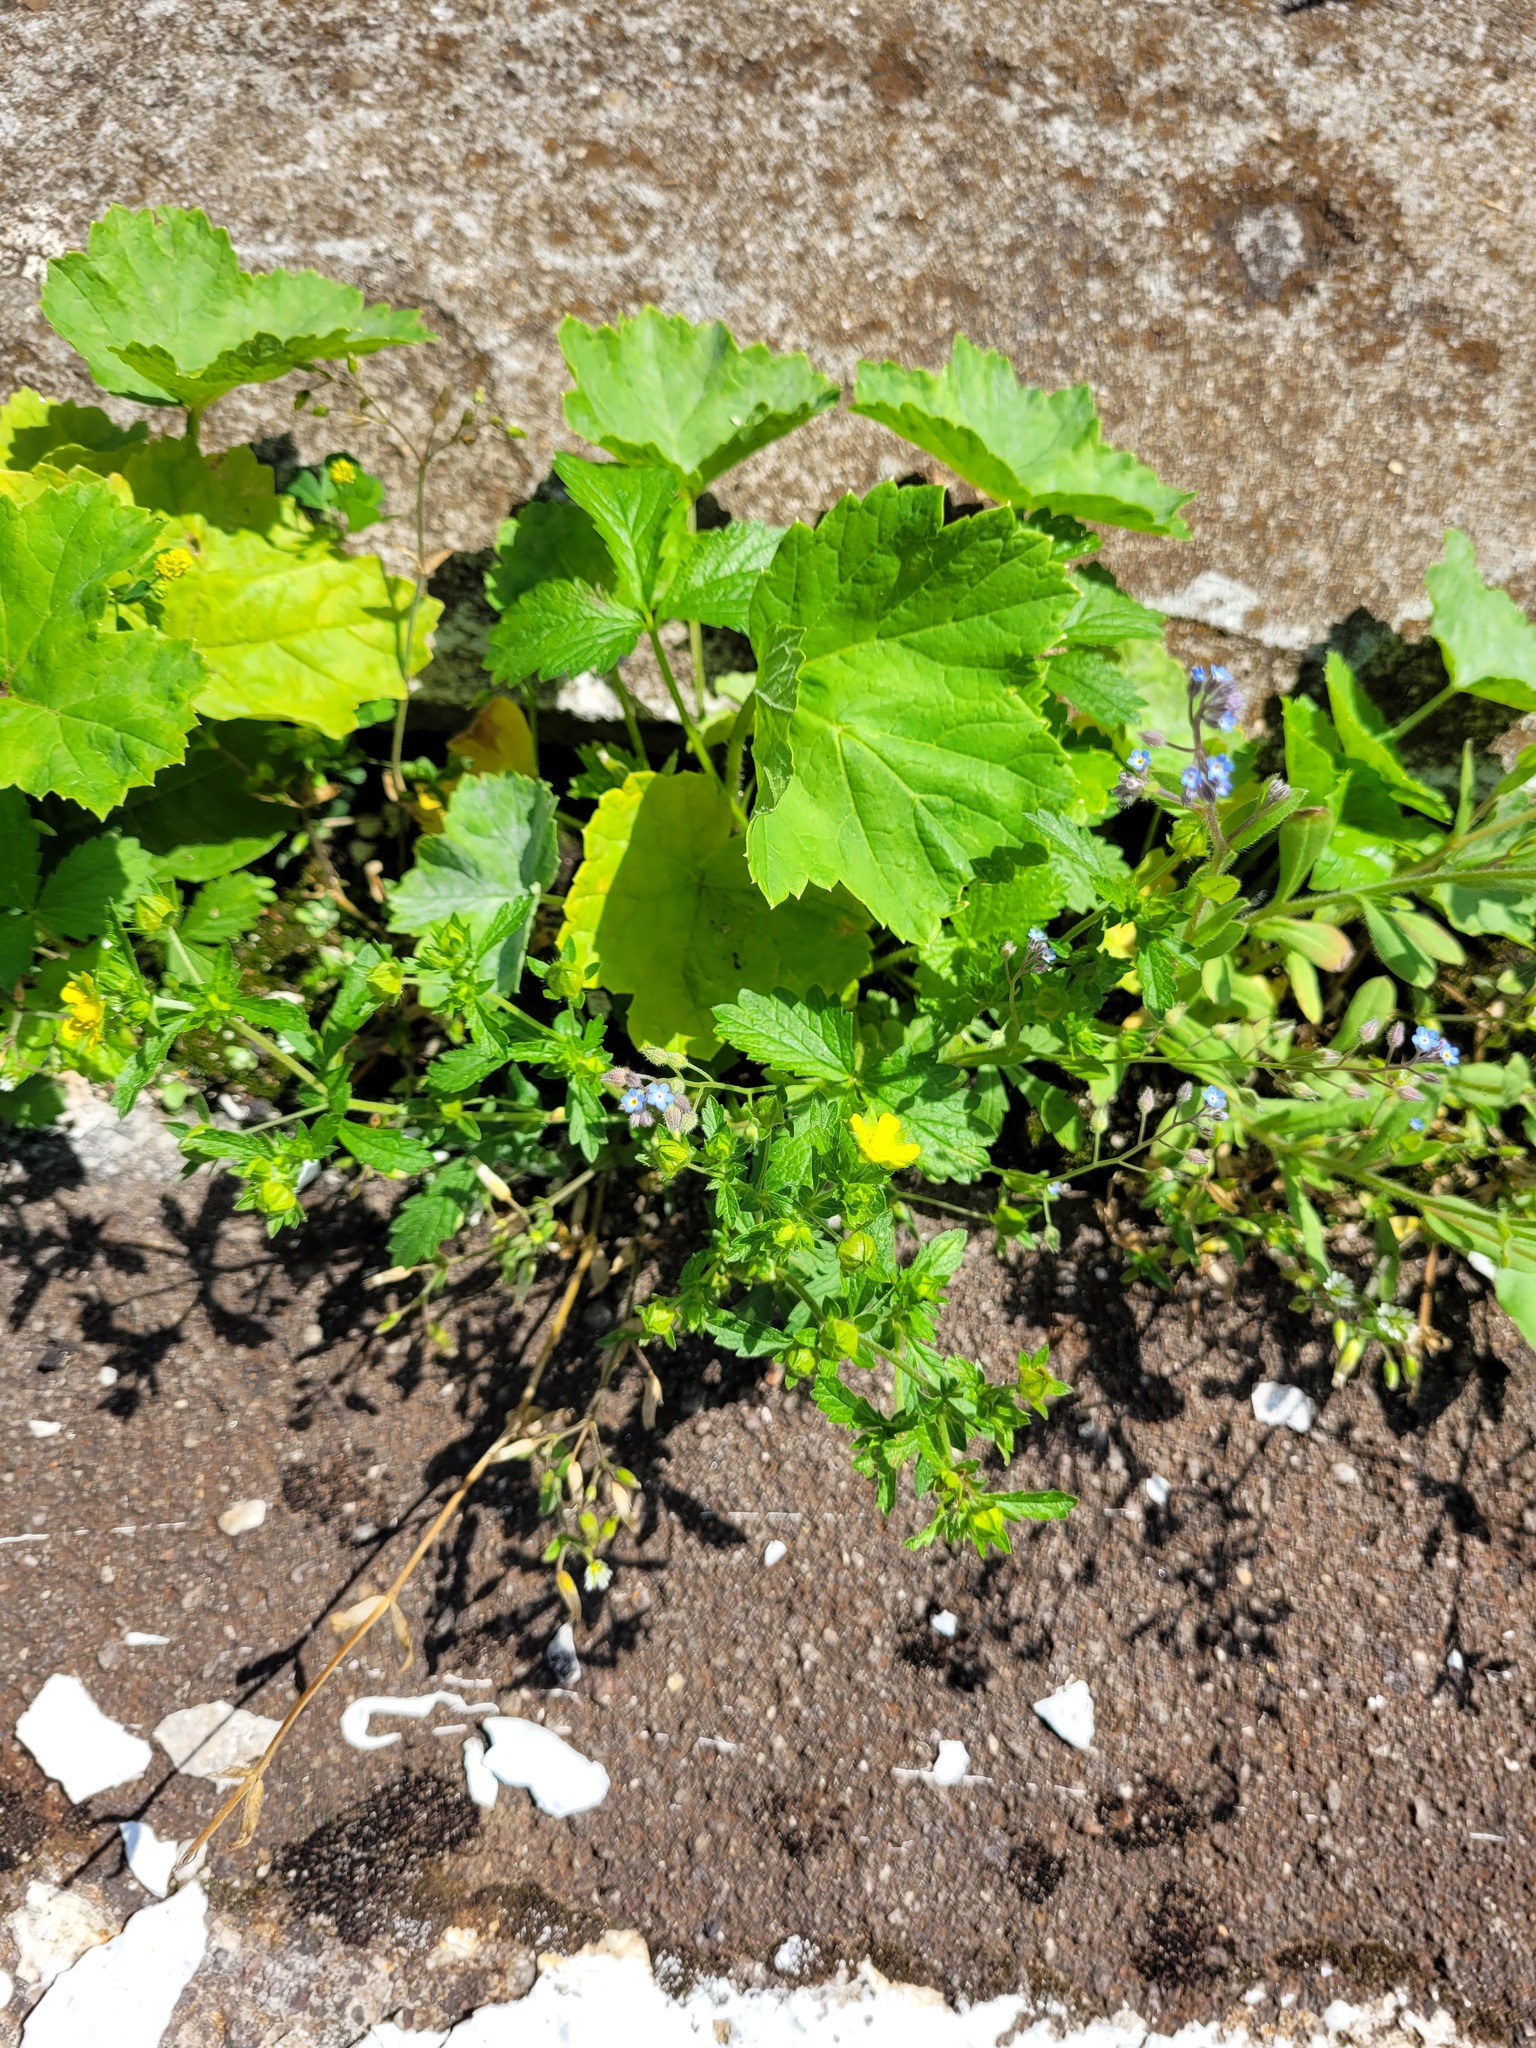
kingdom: Plantae
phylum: Tracheophyta
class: Magnoliopsida
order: Rosales
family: Rosaceae
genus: Potentilla
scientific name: Potentilla norvegica
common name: Ternate-leaved cinquefoil
